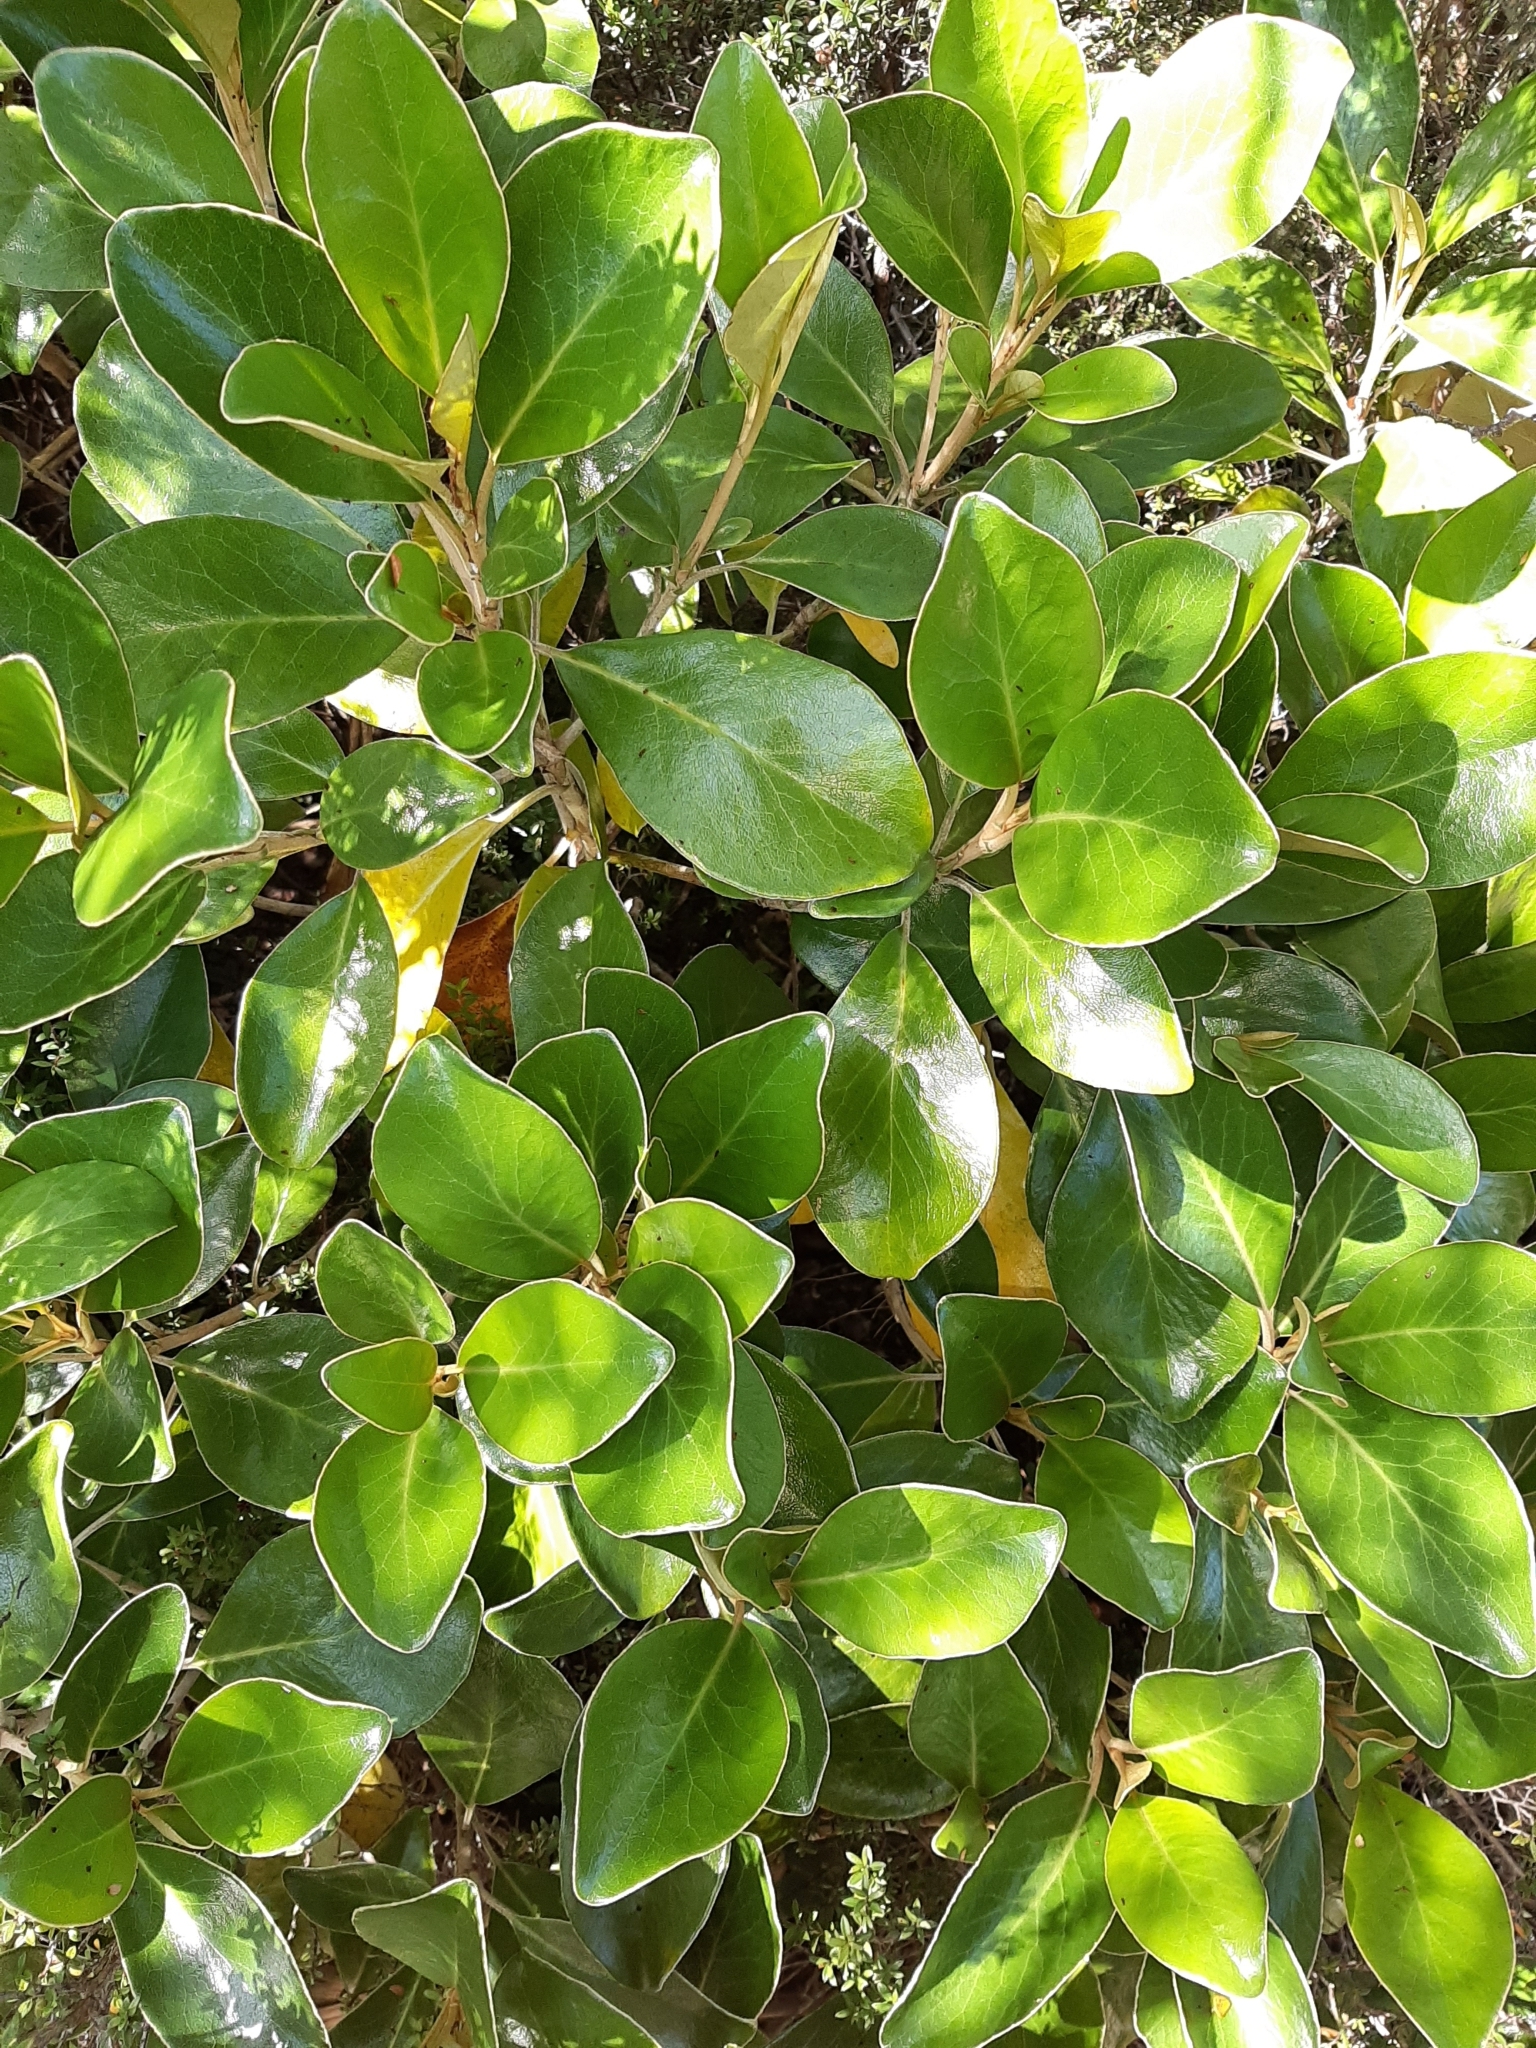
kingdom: Plantae
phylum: Tracheophyta
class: Magnoliopsida
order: Asterales
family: Asteraceae
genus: Brachyglottis
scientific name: Brachyglottis elaeagnifolia
